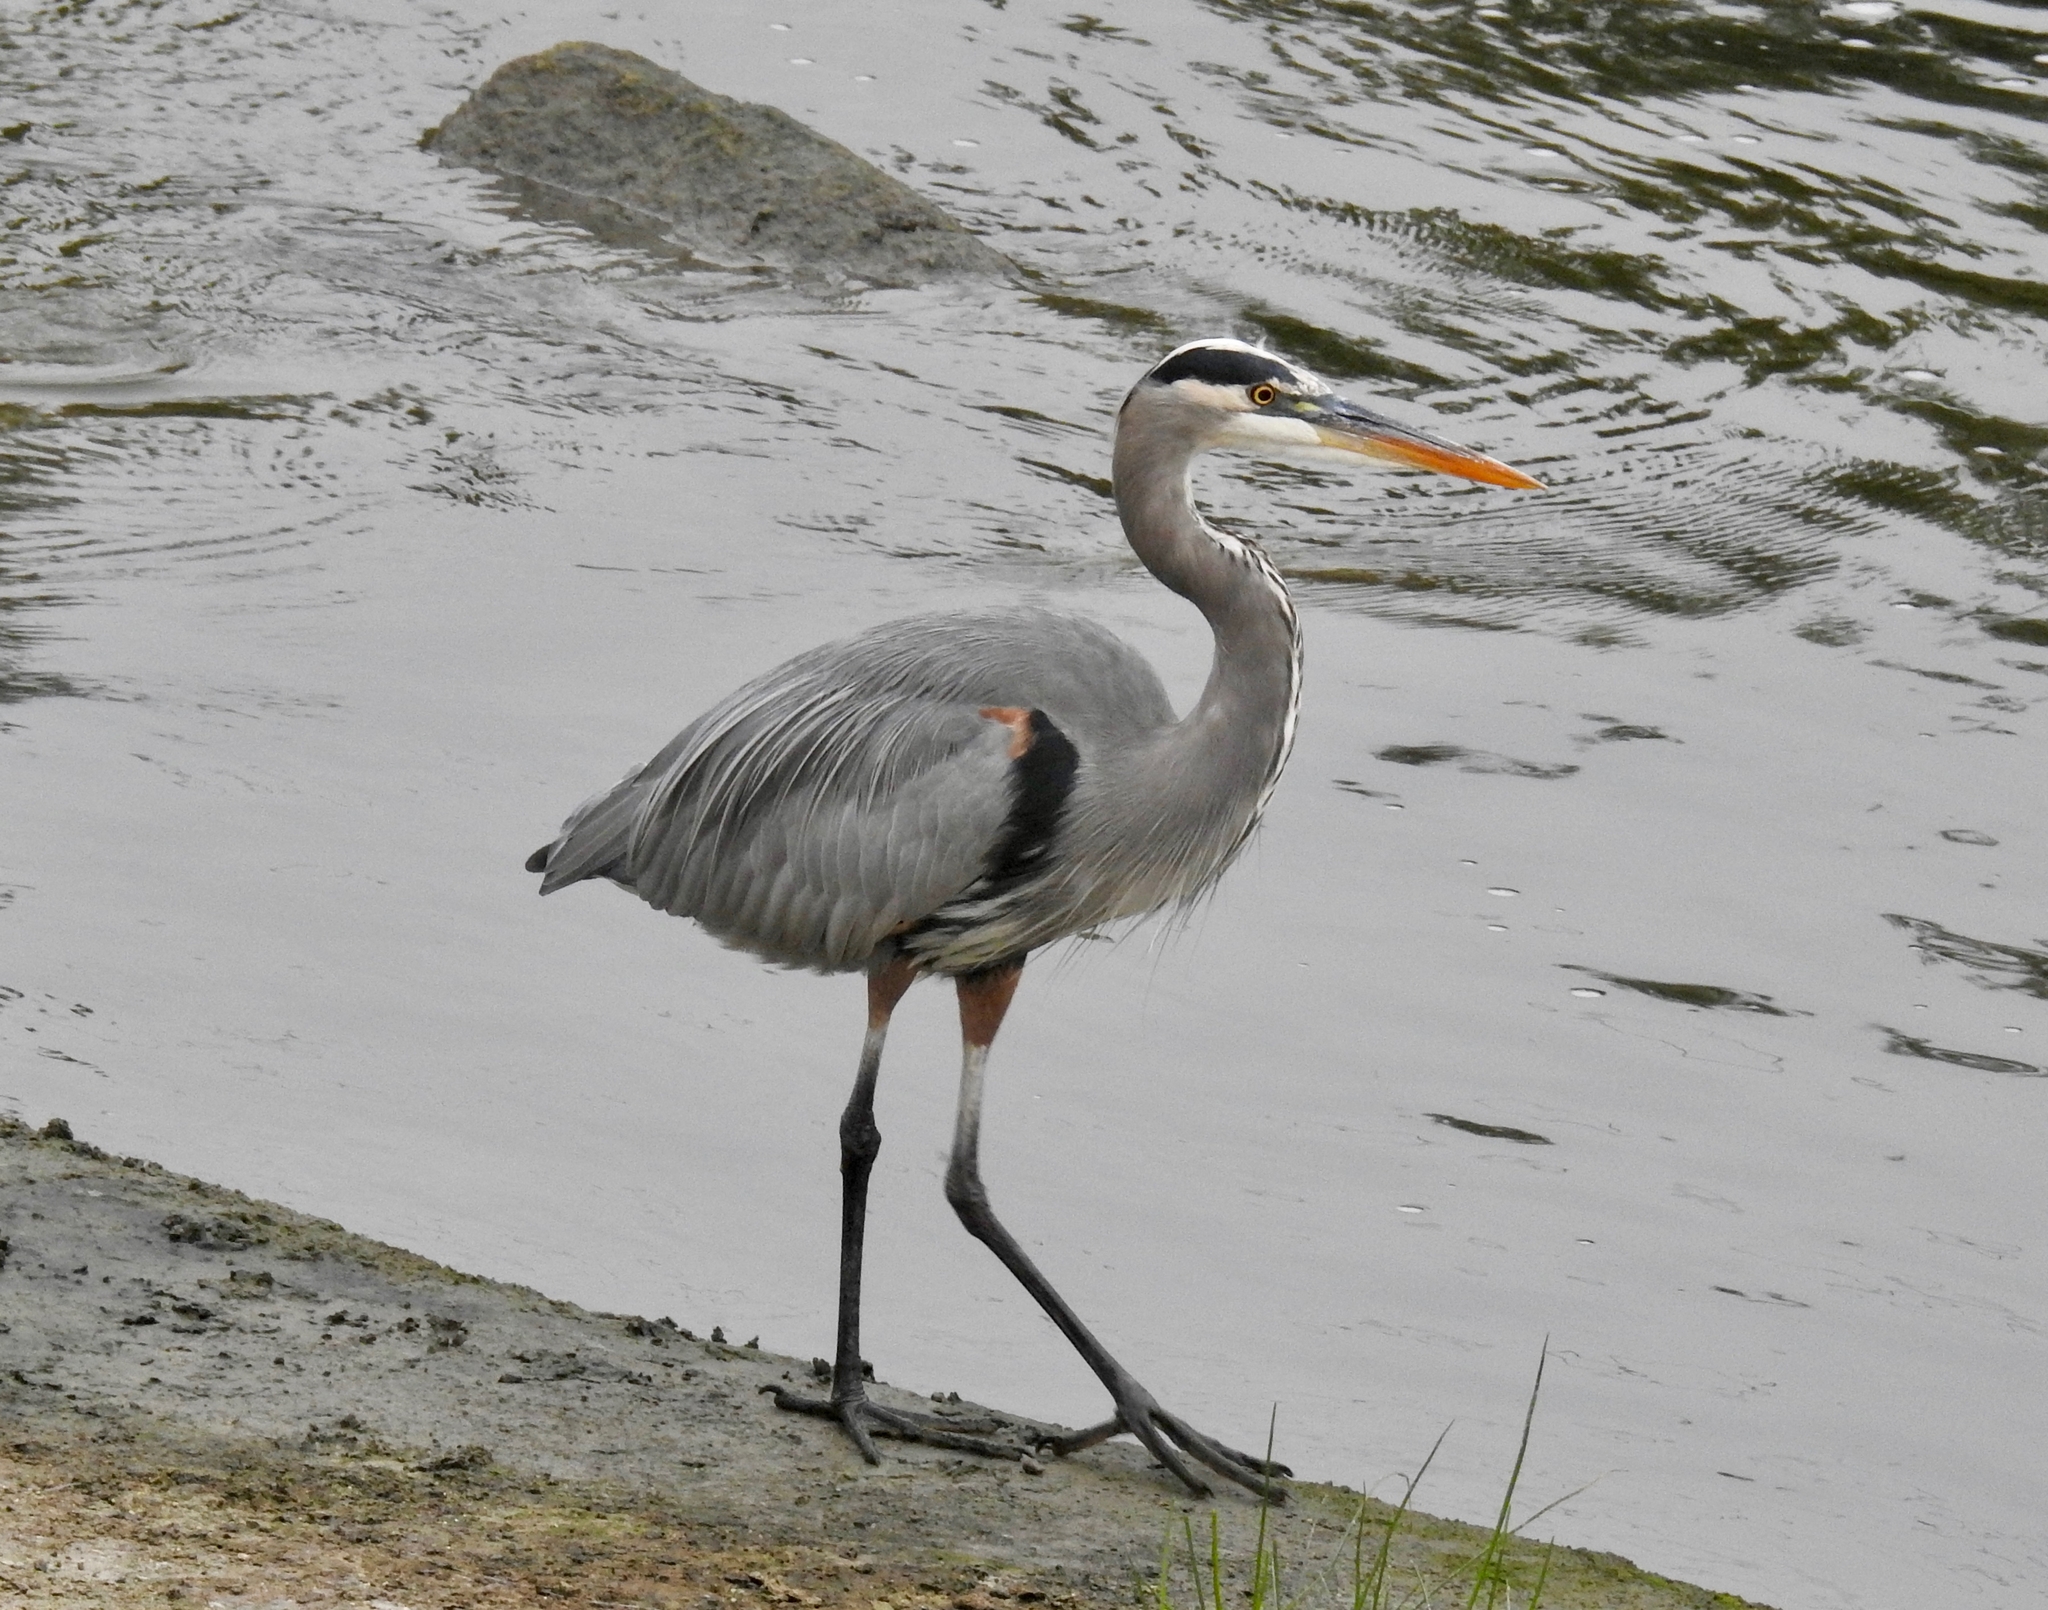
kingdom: Animalia
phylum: Chordata
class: Aves
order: Pelecaniformes
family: Ardeidae
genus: Ardea
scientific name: Ardea herodias
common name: Great blue heron
